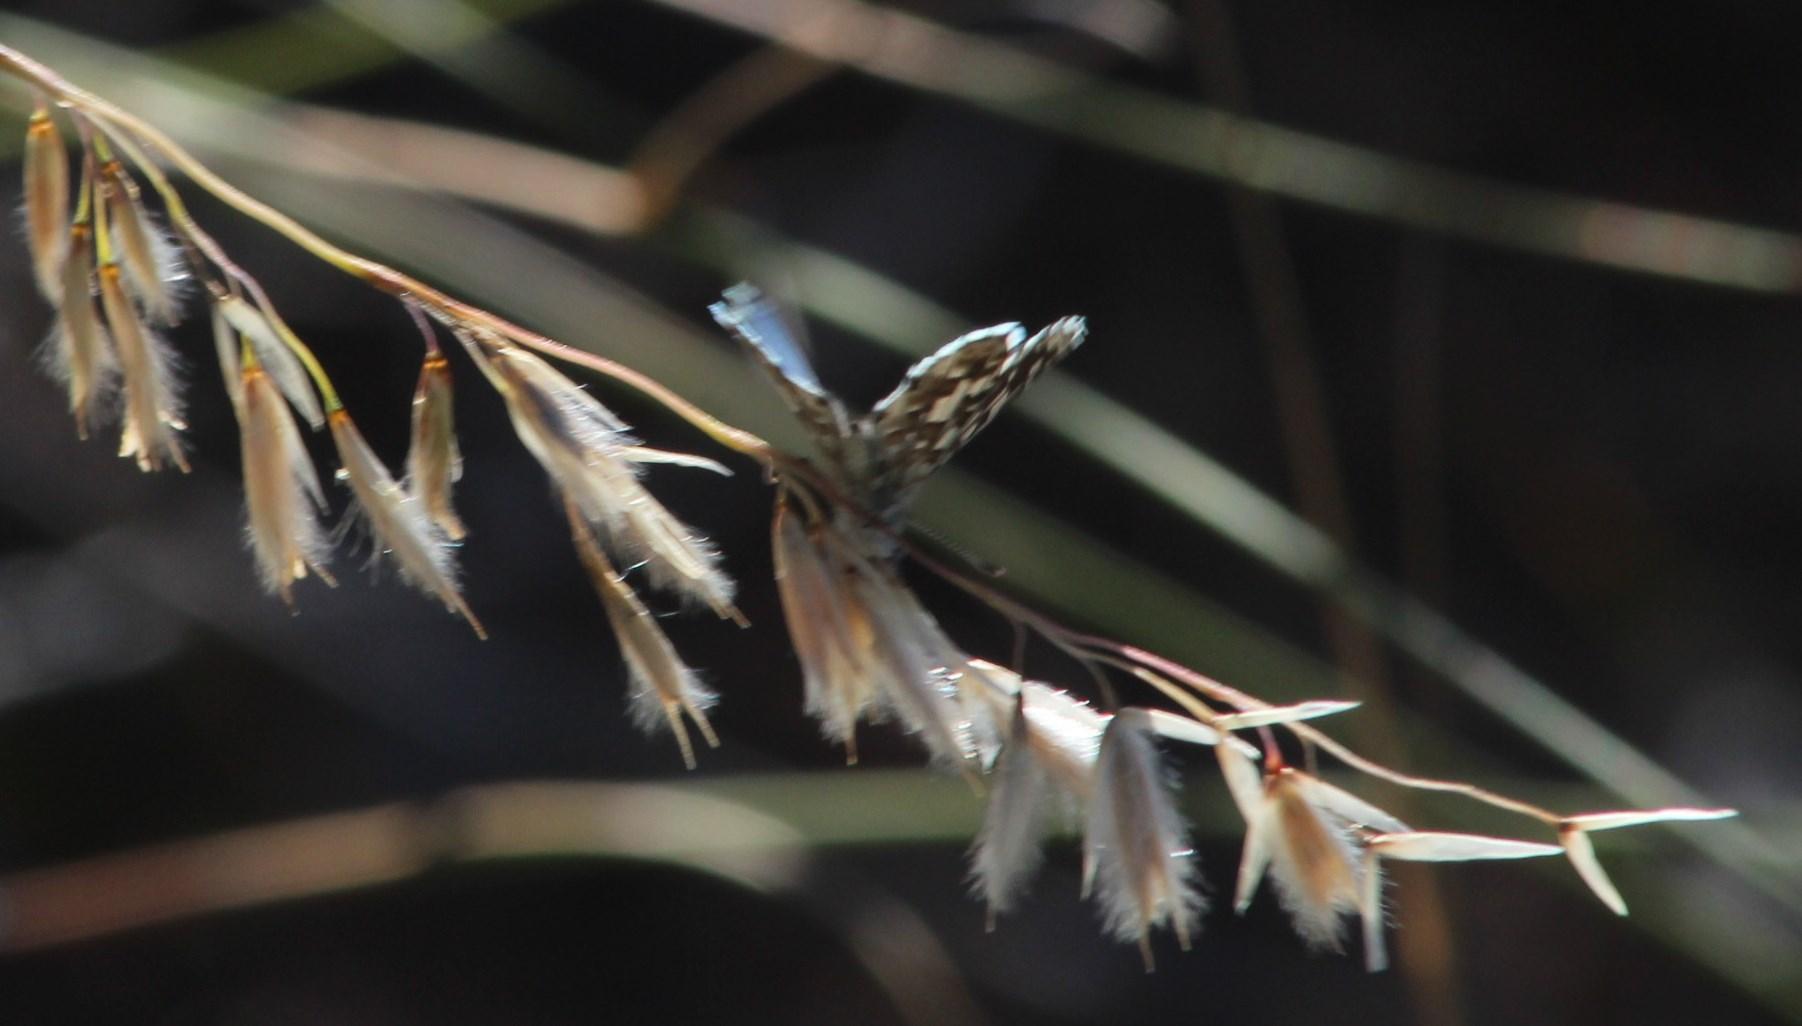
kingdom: Animalia
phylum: Arthropoda
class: Insecta
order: Lepidoptera
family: Lycaenidae
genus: Tarucus
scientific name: Tarucus thespis
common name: Vivid dotted blue
